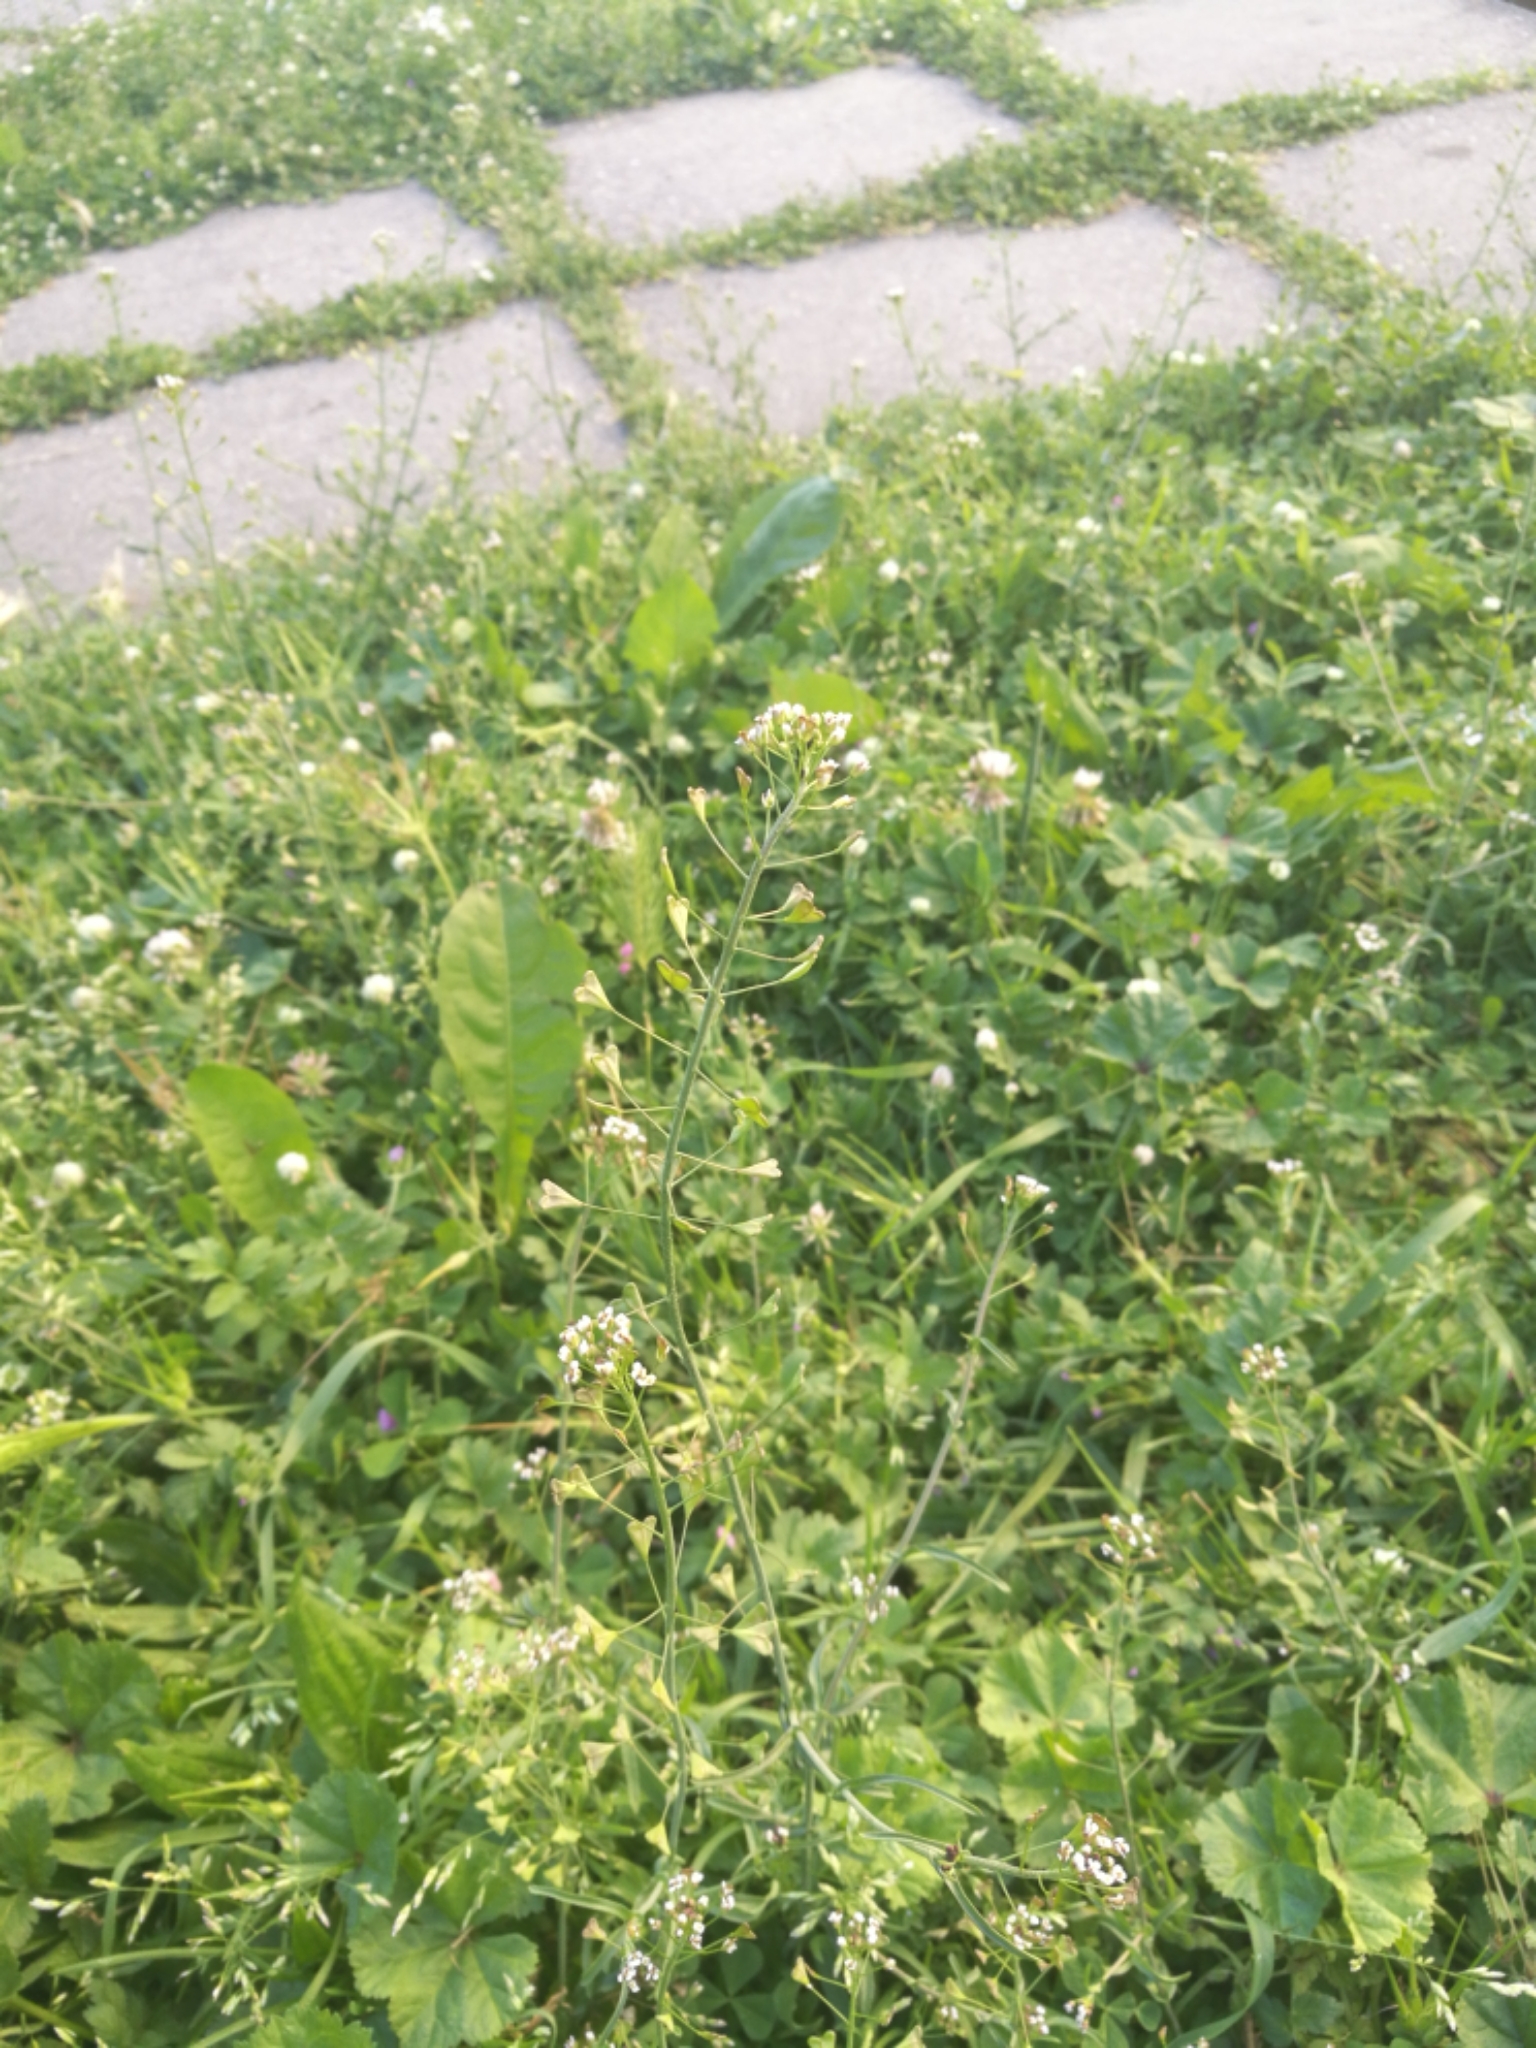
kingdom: Plantae
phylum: Tracheophyta
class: Magnoliopsida
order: Brassicales
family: Brassicaceae
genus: Capsella
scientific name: Capsella rubella
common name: Pink shepherd's-purse
